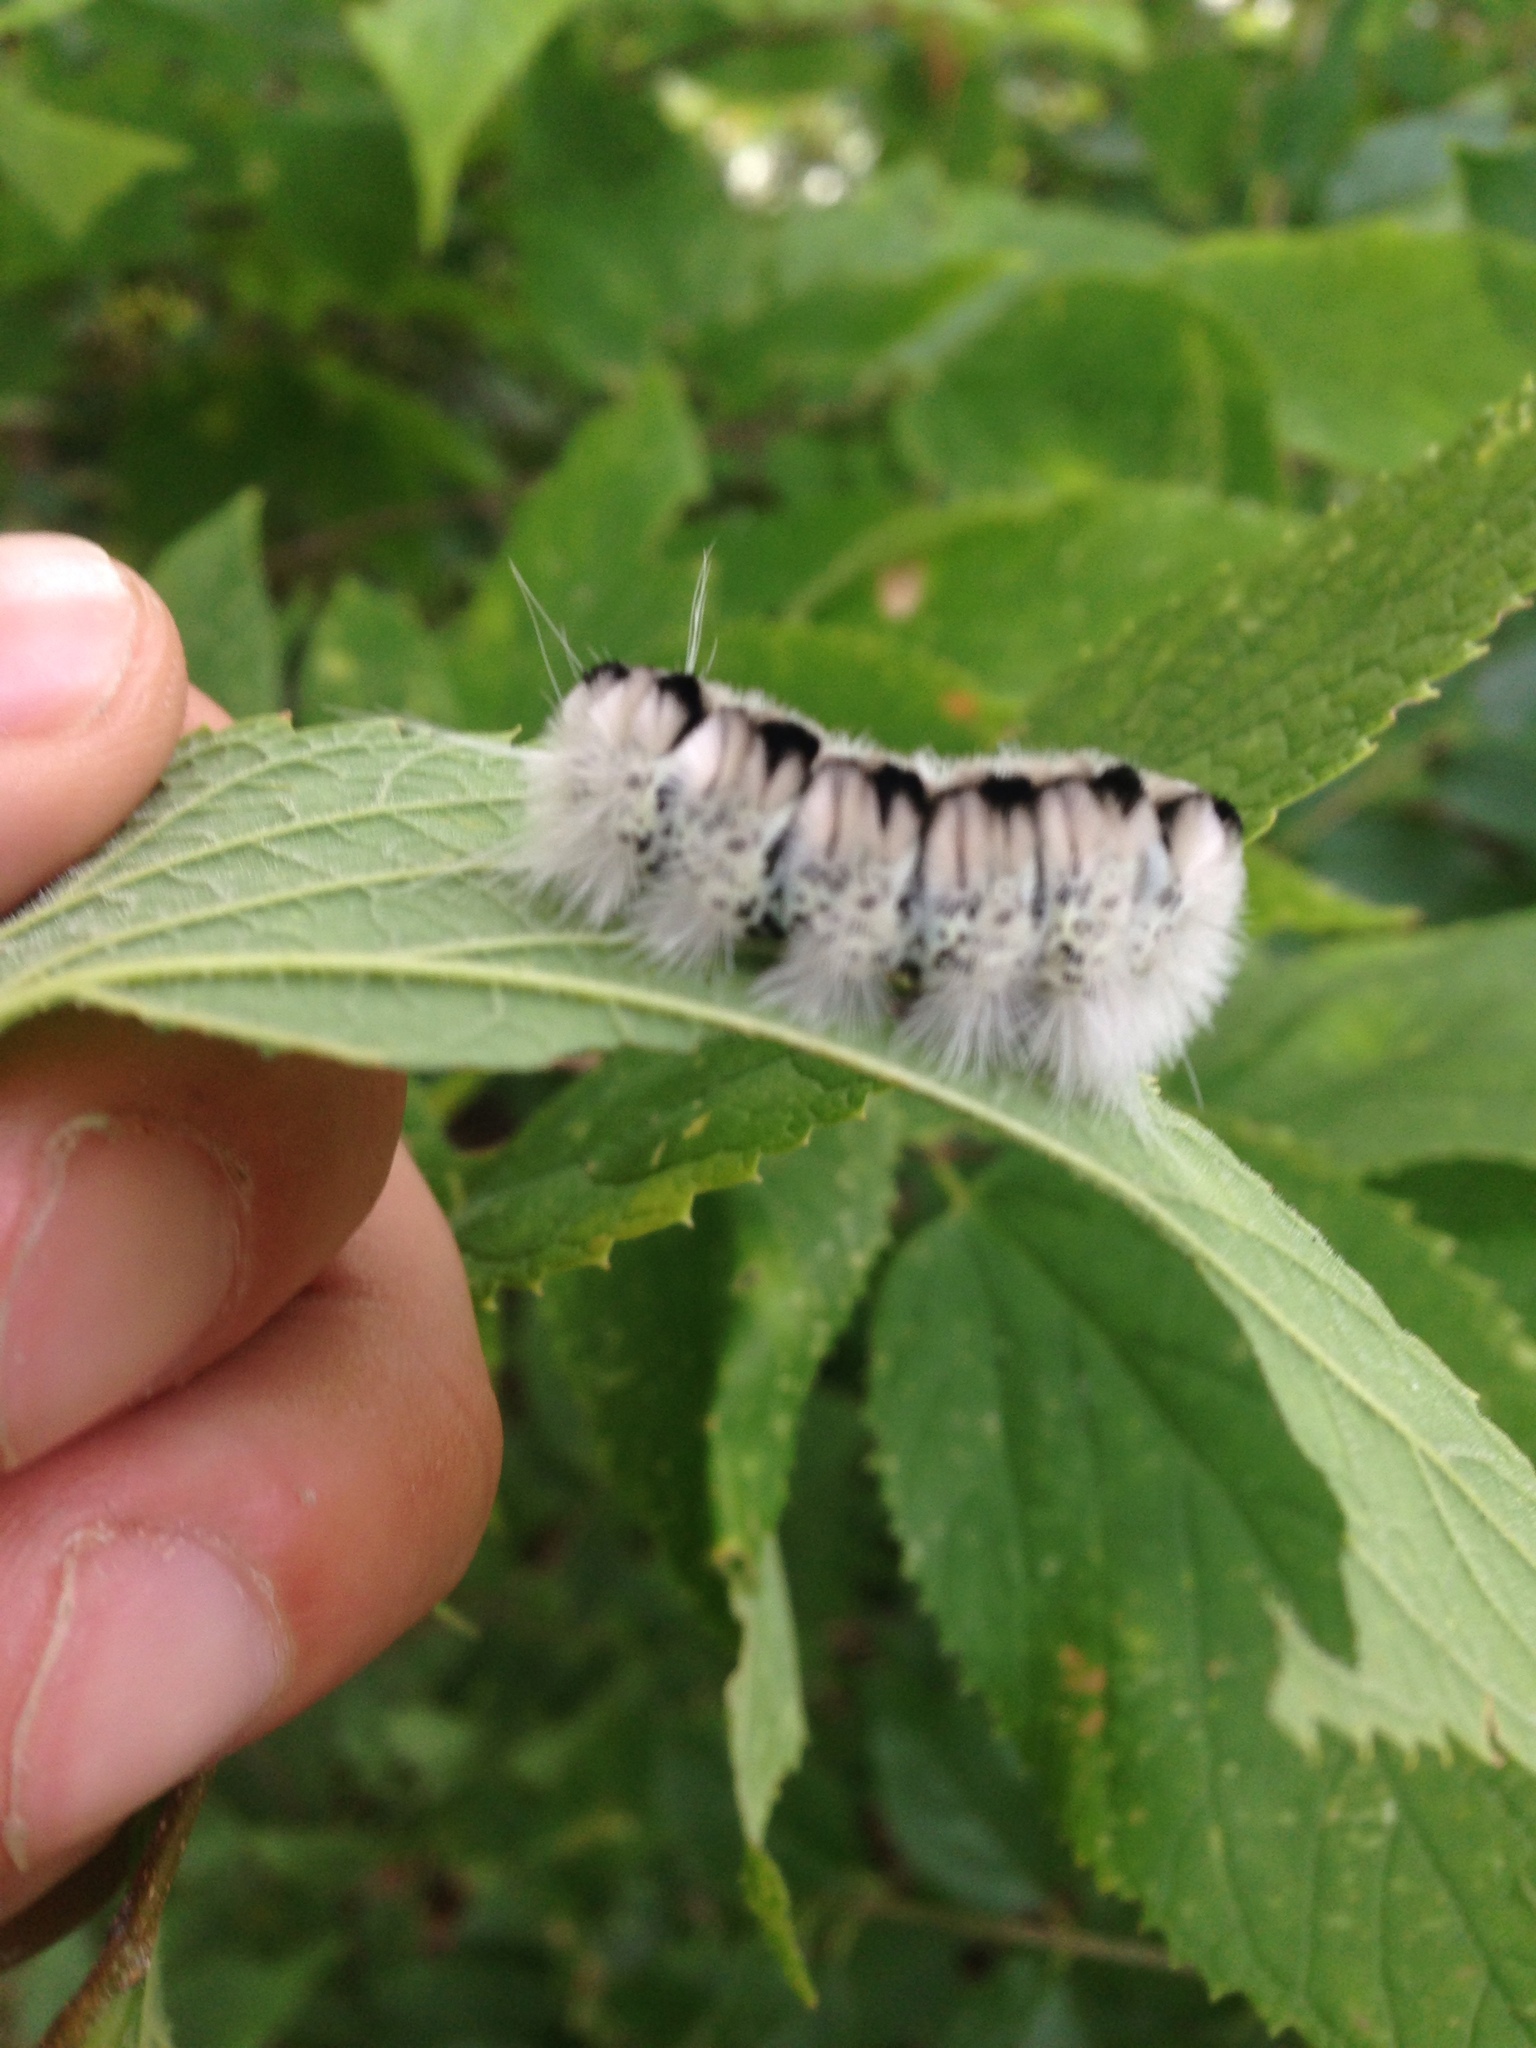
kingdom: Animalia
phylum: Arthropoda
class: Insecta
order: Lepidoptera
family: Erebidae
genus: Lophocampa
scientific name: Lophocampa caryae
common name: Hickory tussock moth
